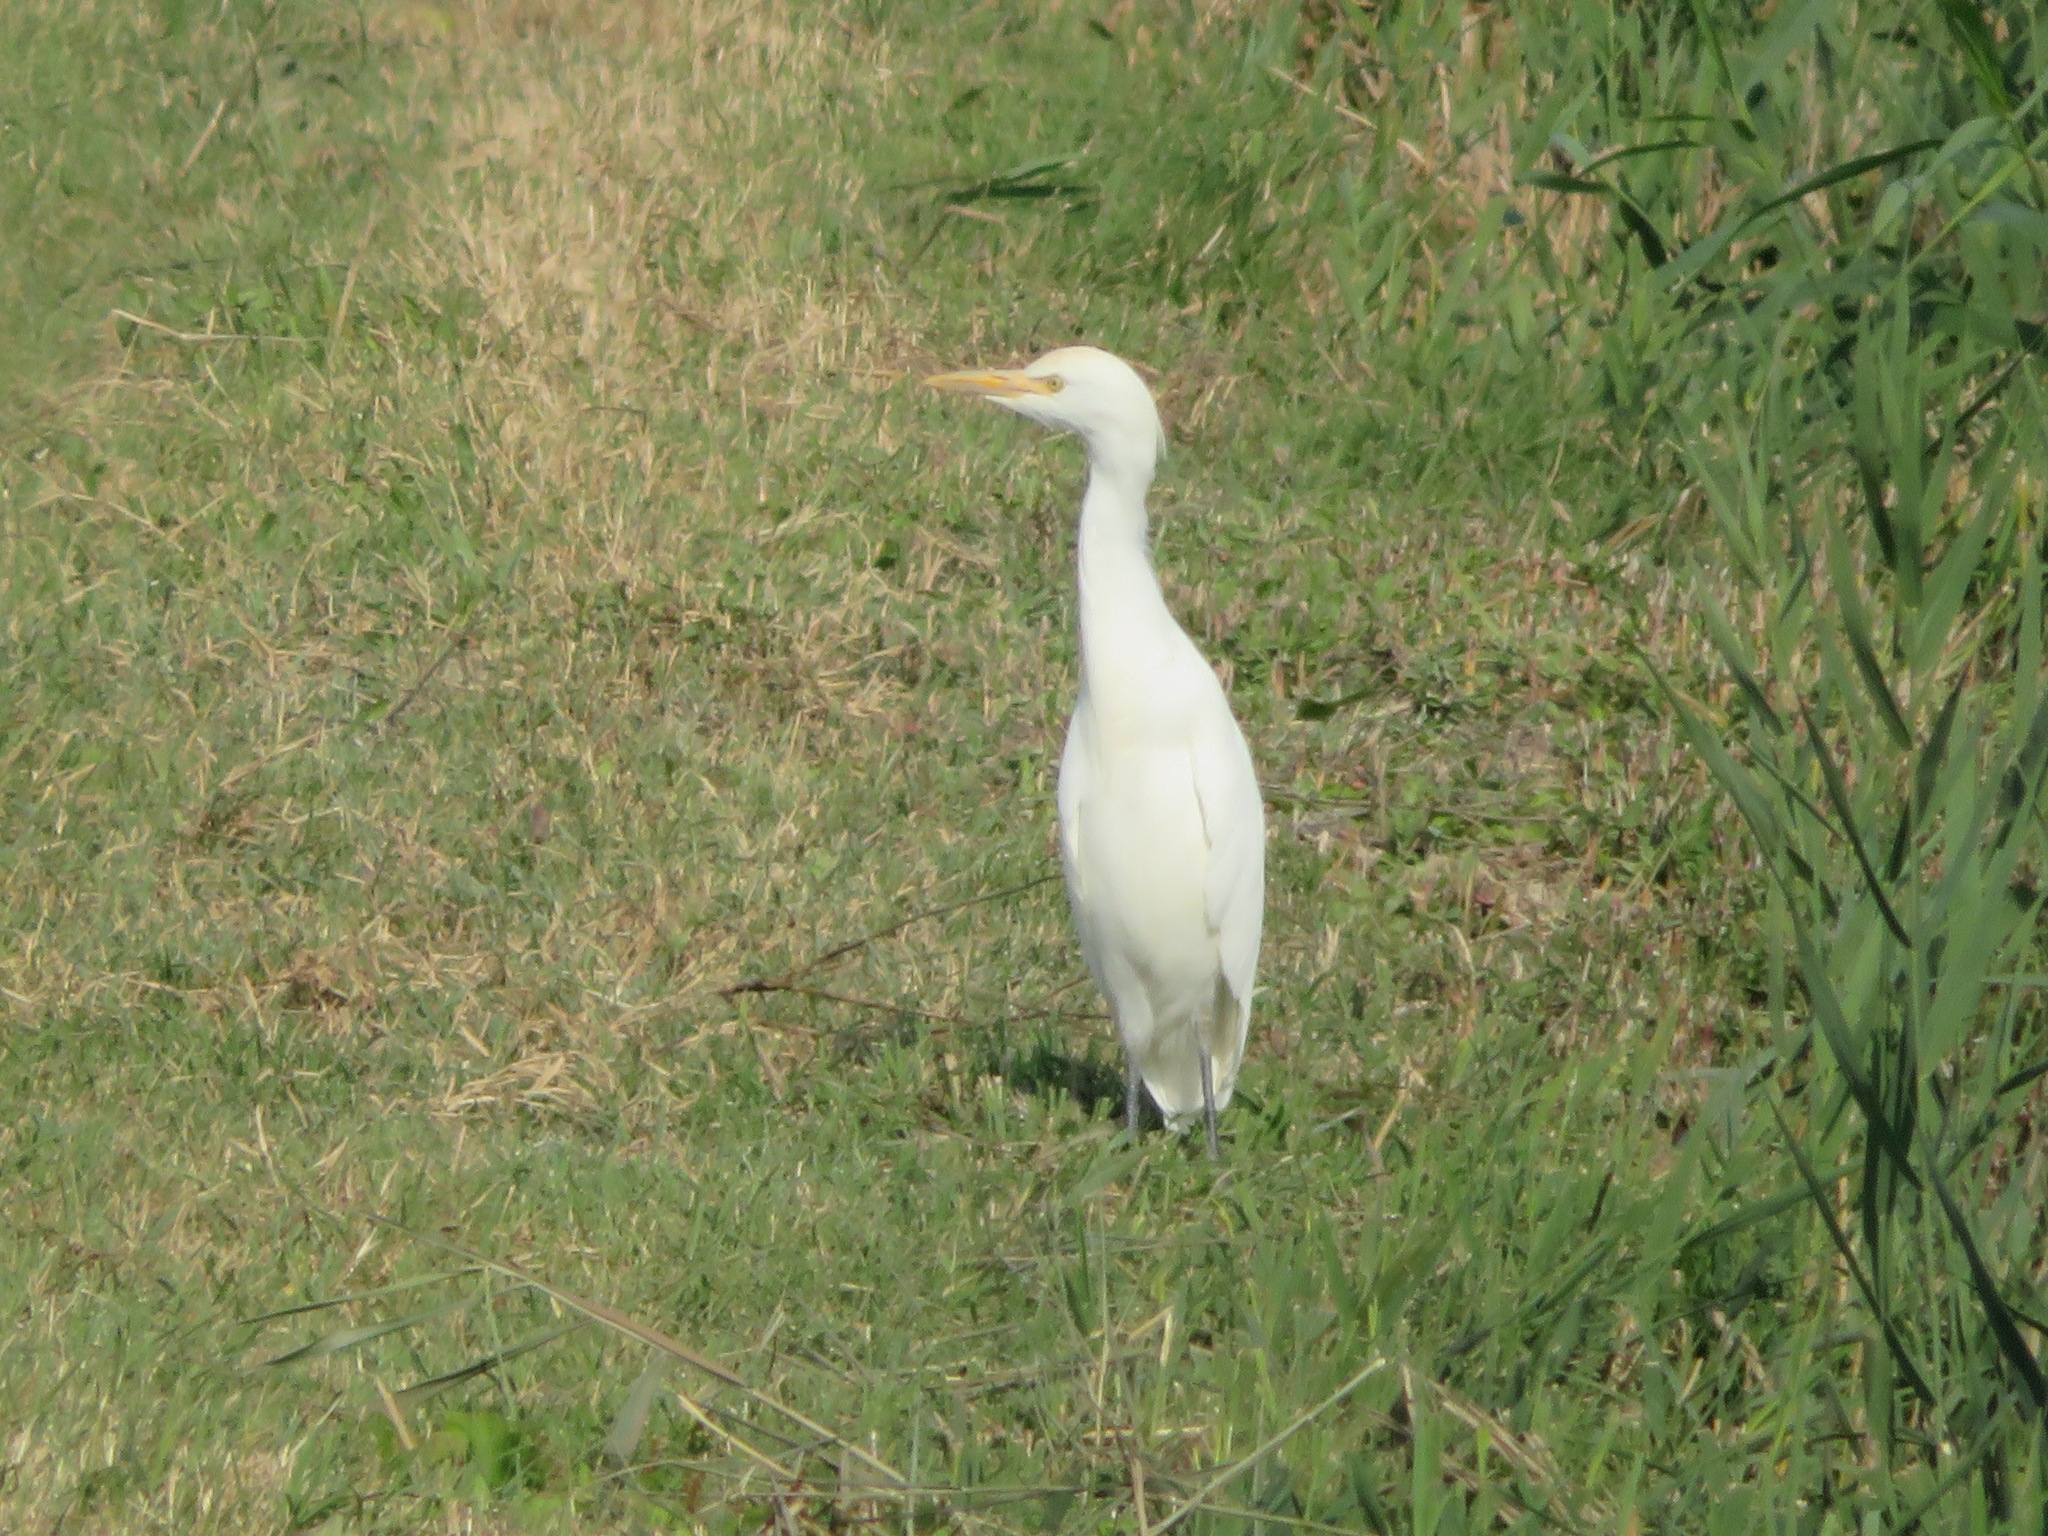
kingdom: Animalia
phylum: Chordata
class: Aves
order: Pelecaniformes
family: Ardeidae
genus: Bubulcus
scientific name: Bubulcus ibis
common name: Cattle egret
